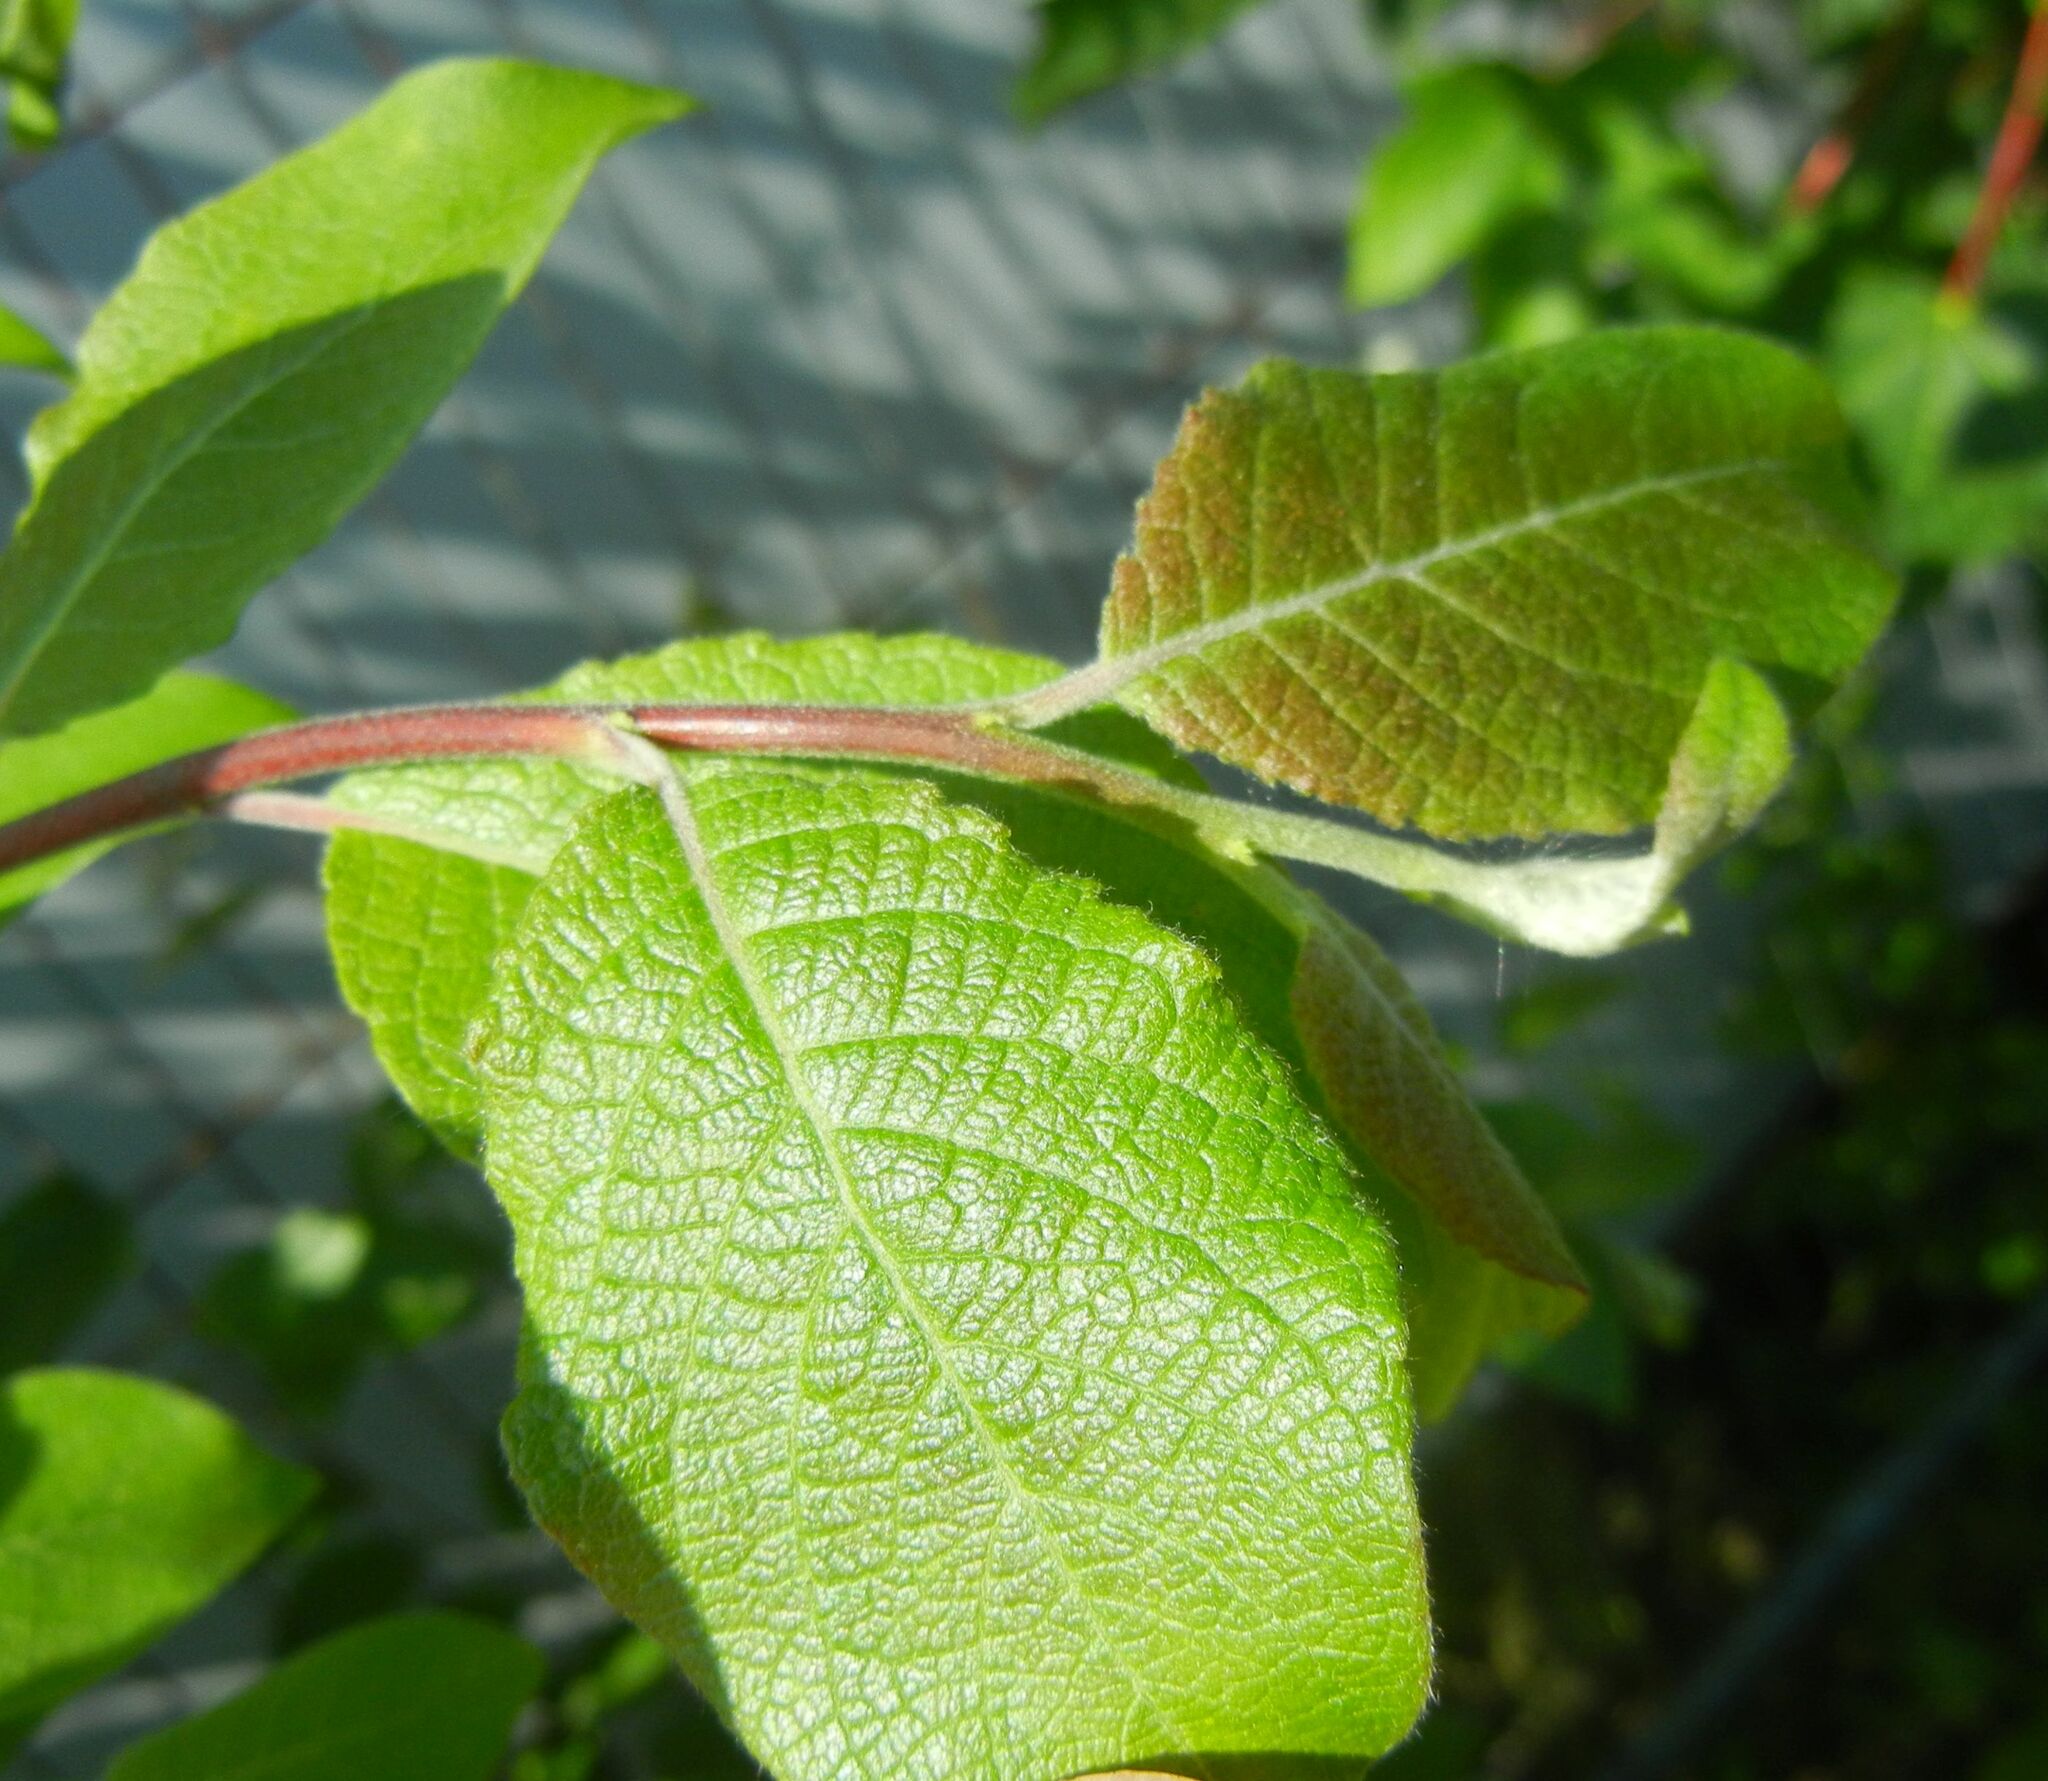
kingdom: Plantae
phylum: Tracheophyta
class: Magnoliopsida
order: Malpighiales
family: Salicaceae
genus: Salix
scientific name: Salix caprea
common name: Goat willow
